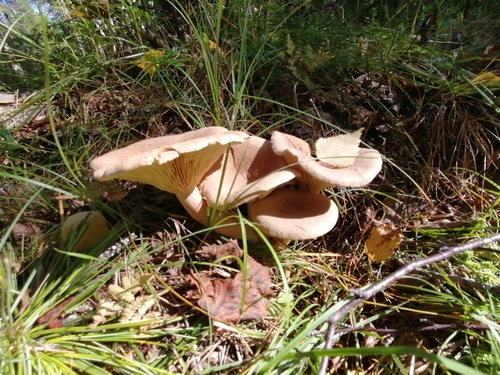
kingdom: Fungi
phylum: Basidiomycota
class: Agaricomycetes
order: Russulales
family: Russulaceae
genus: Lactarius
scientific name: Lactarius helvus
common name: Fenugreek milkcap
